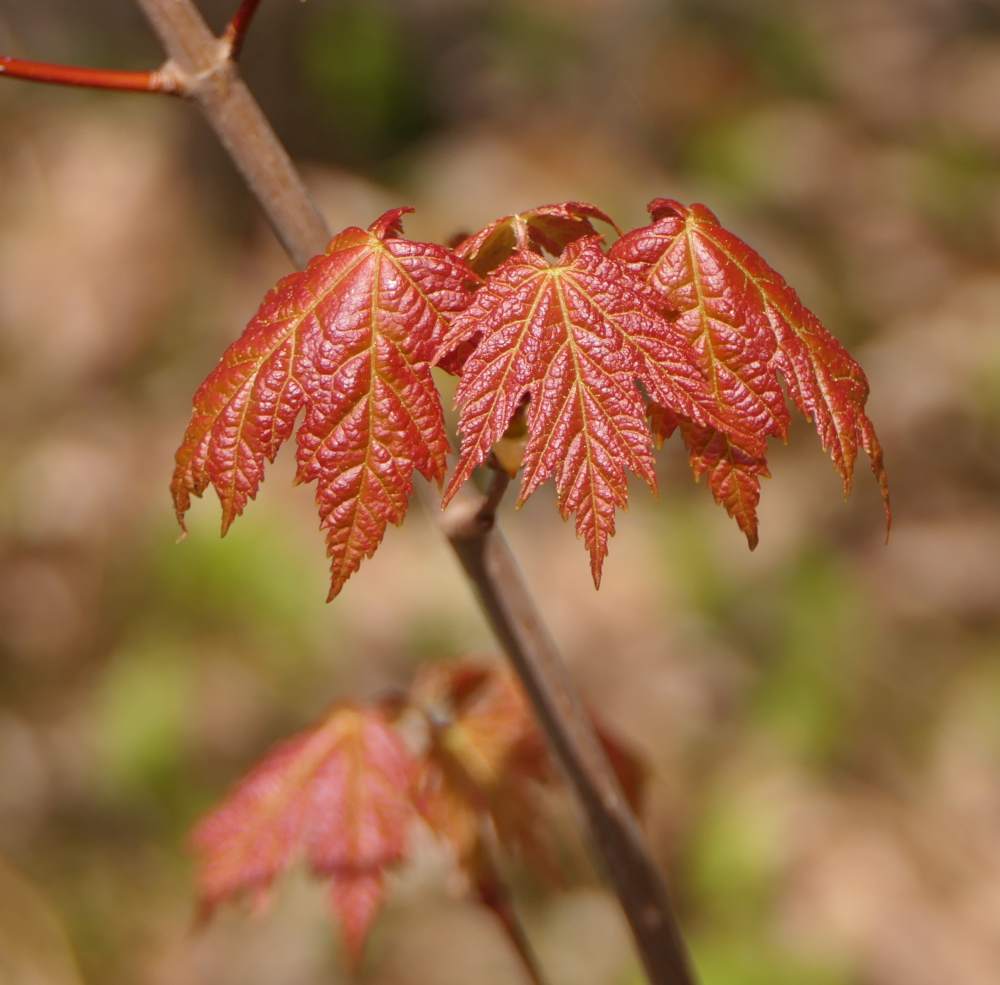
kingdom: Plantae
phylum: Tracheophyta
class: Magnoliopsida
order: Sapindales
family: Sapindaceae
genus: Acer
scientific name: Acer rubrum
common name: Red maple
